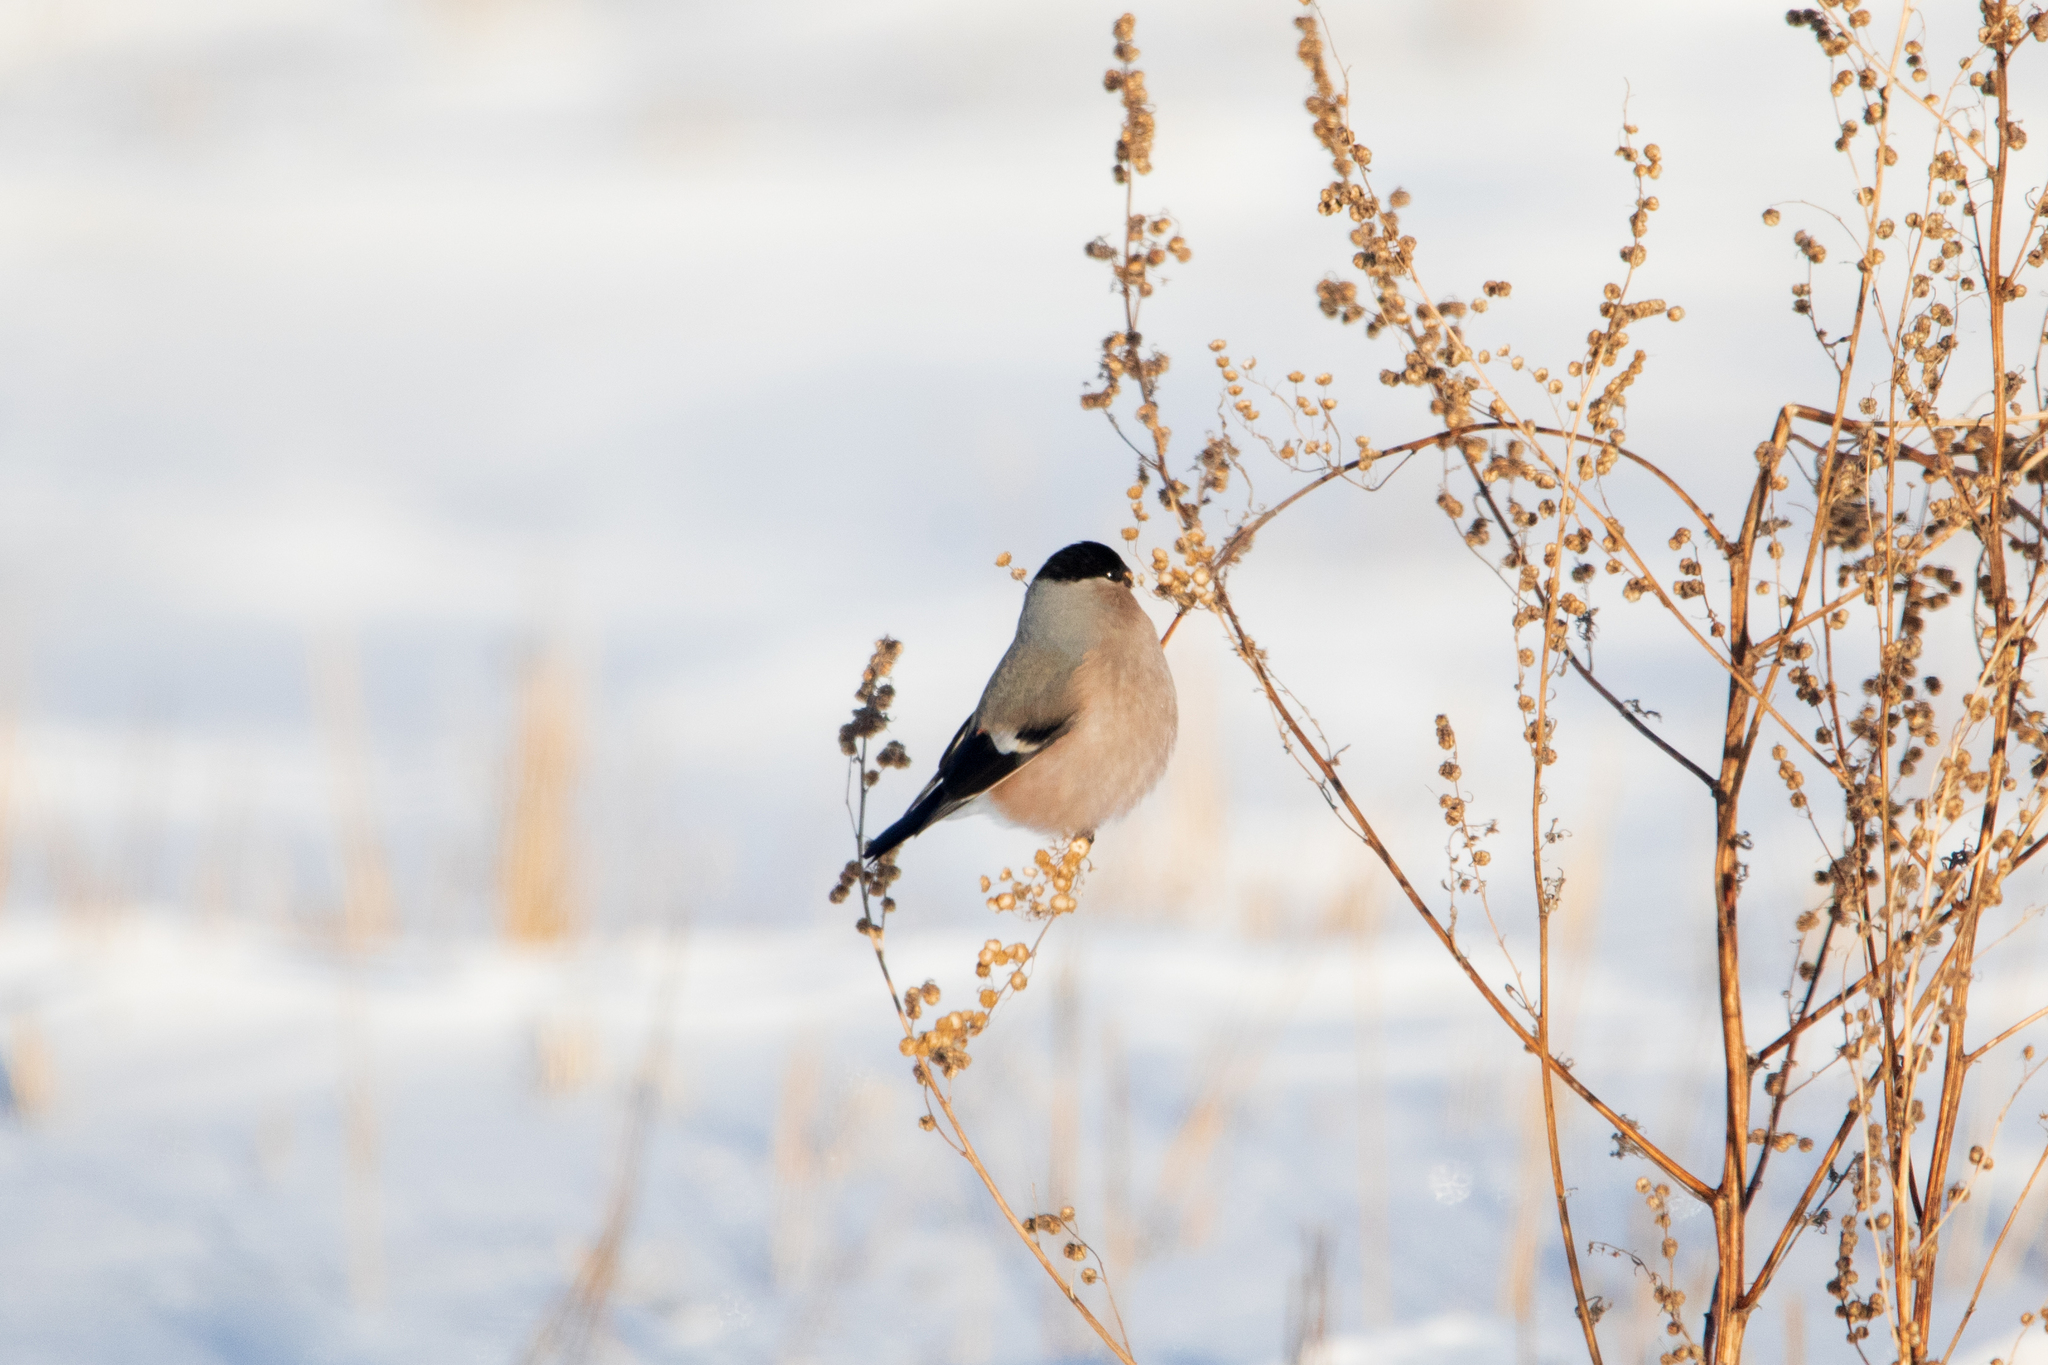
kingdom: Animalia
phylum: Chordata
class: Aves
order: Passeriformes
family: Fringillidae
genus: Pyrrhula
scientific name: Pyrrhula pyrrhula
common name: Eurasian bullfinch
